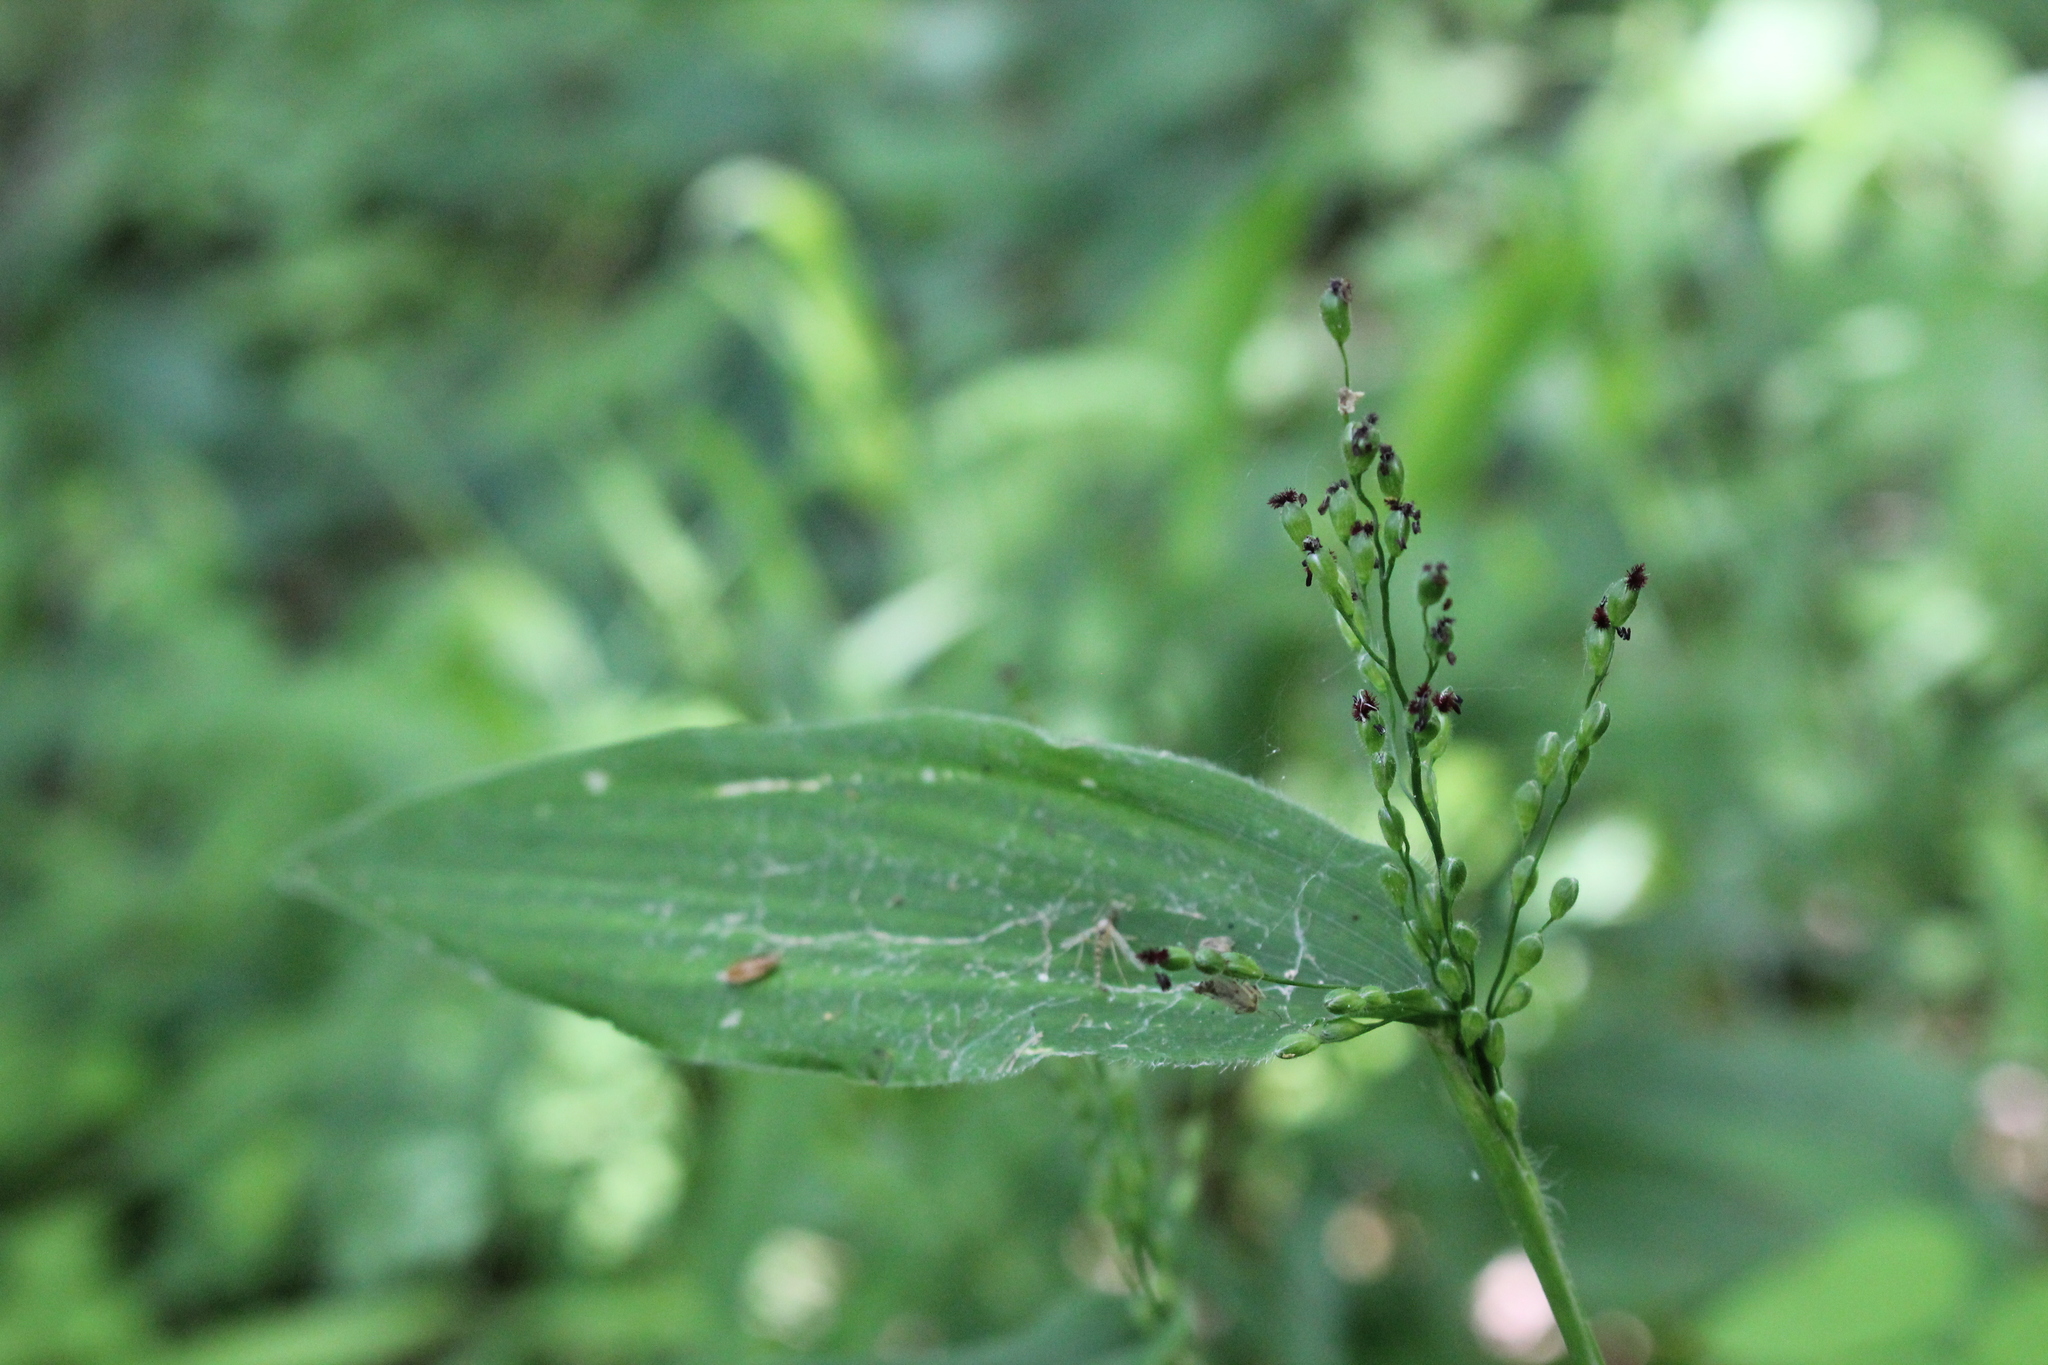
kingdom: Plantae
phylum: Tracheophyta
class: Liliopsida
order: Poales
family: Poaceae
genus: Dichanthelium
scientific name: Dichanthelium latifolium
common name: Broad-leaved panicgrass
